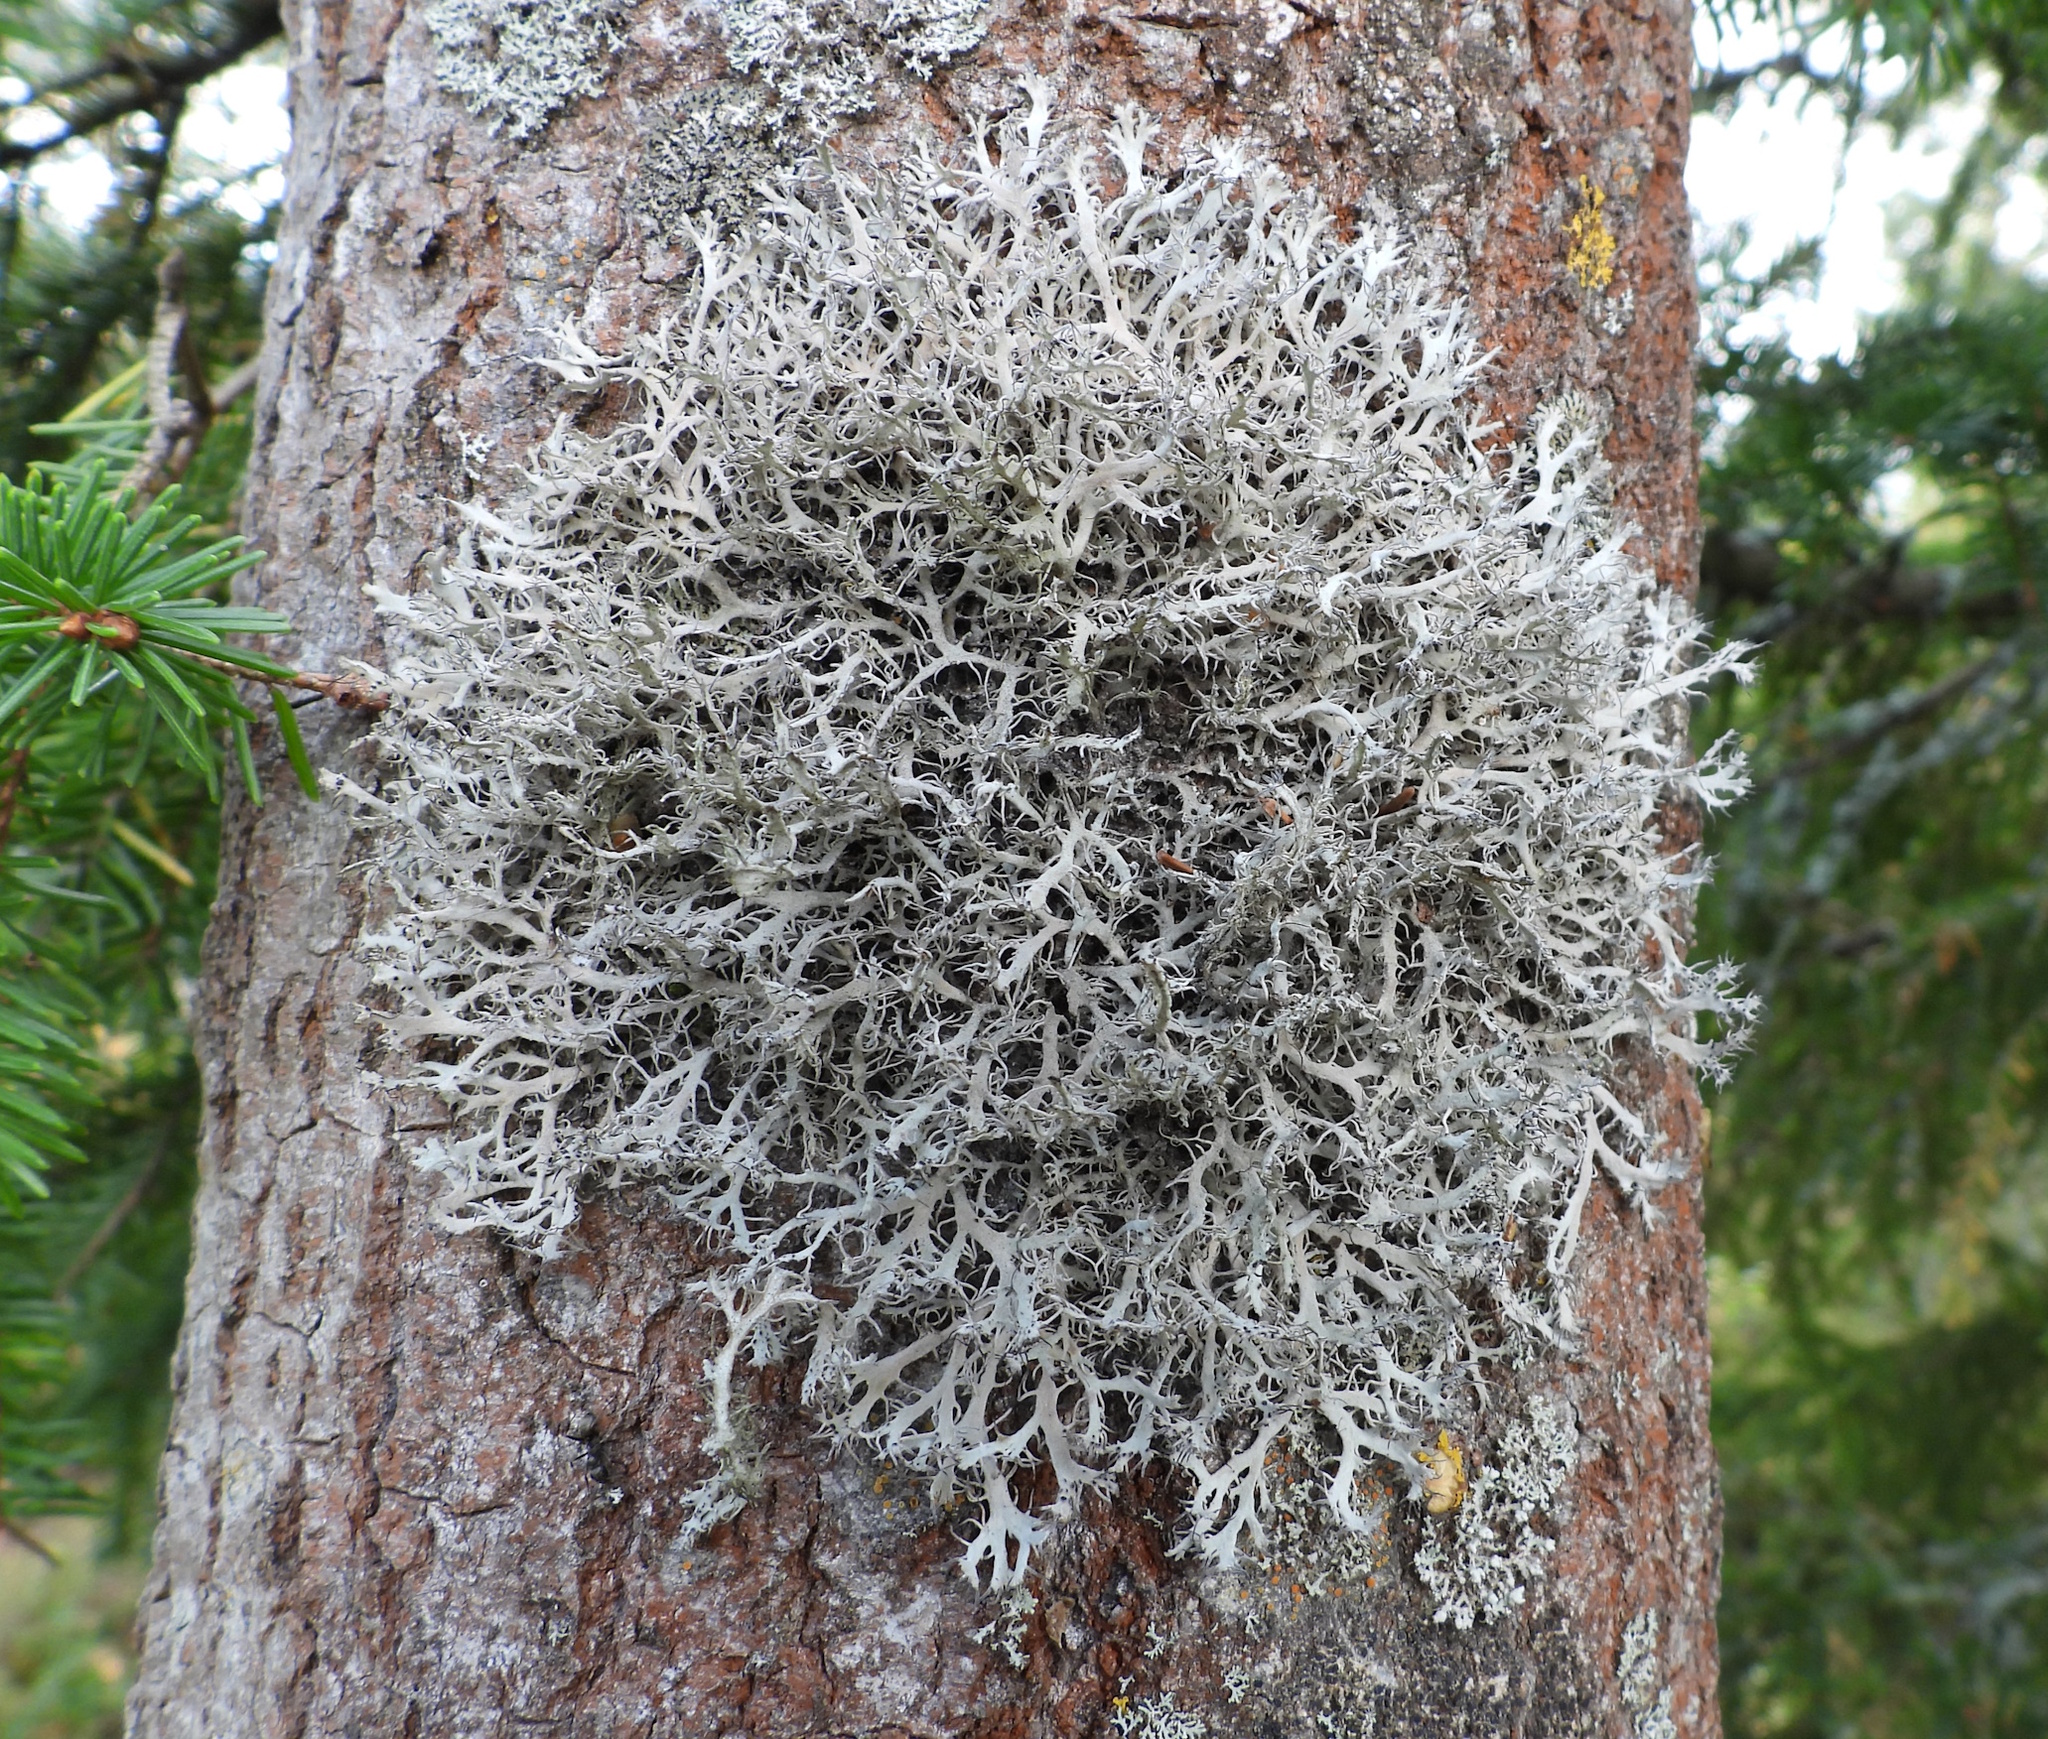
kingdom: Fungi
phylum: Ascomycota
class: Lecanoromycetes
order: Caliciales
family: Physciaceae
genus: Anaptychia
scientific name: Anaptychia ciliaris
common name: Great ciliated lichen
